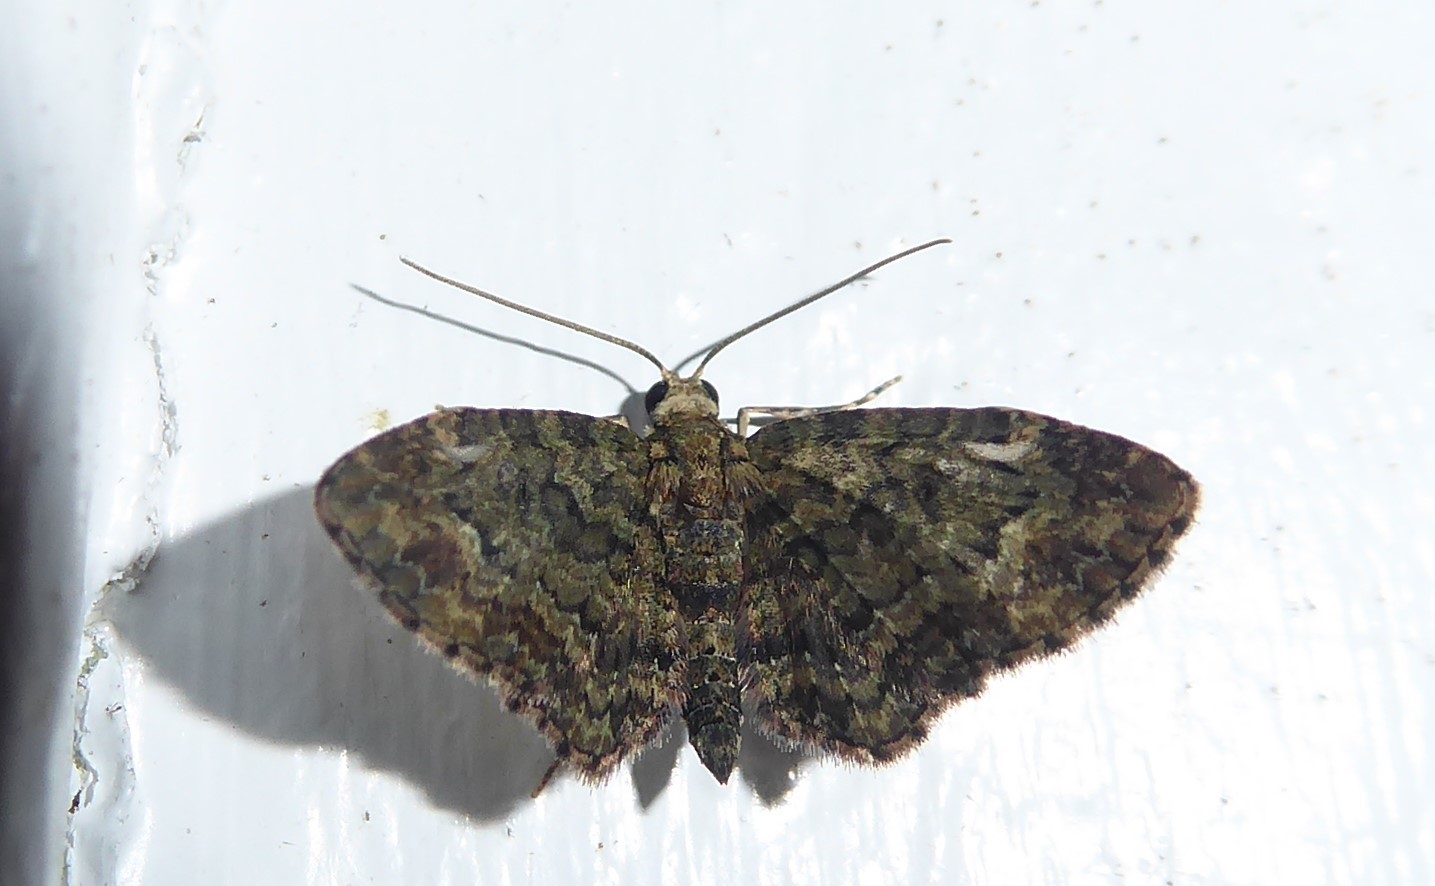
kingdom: Animalia
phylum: Arthropoda
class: Insecta
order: Lepidoptera
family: Geometridae
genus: Pasiphilodes
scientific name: Pasiphilodes testulata
